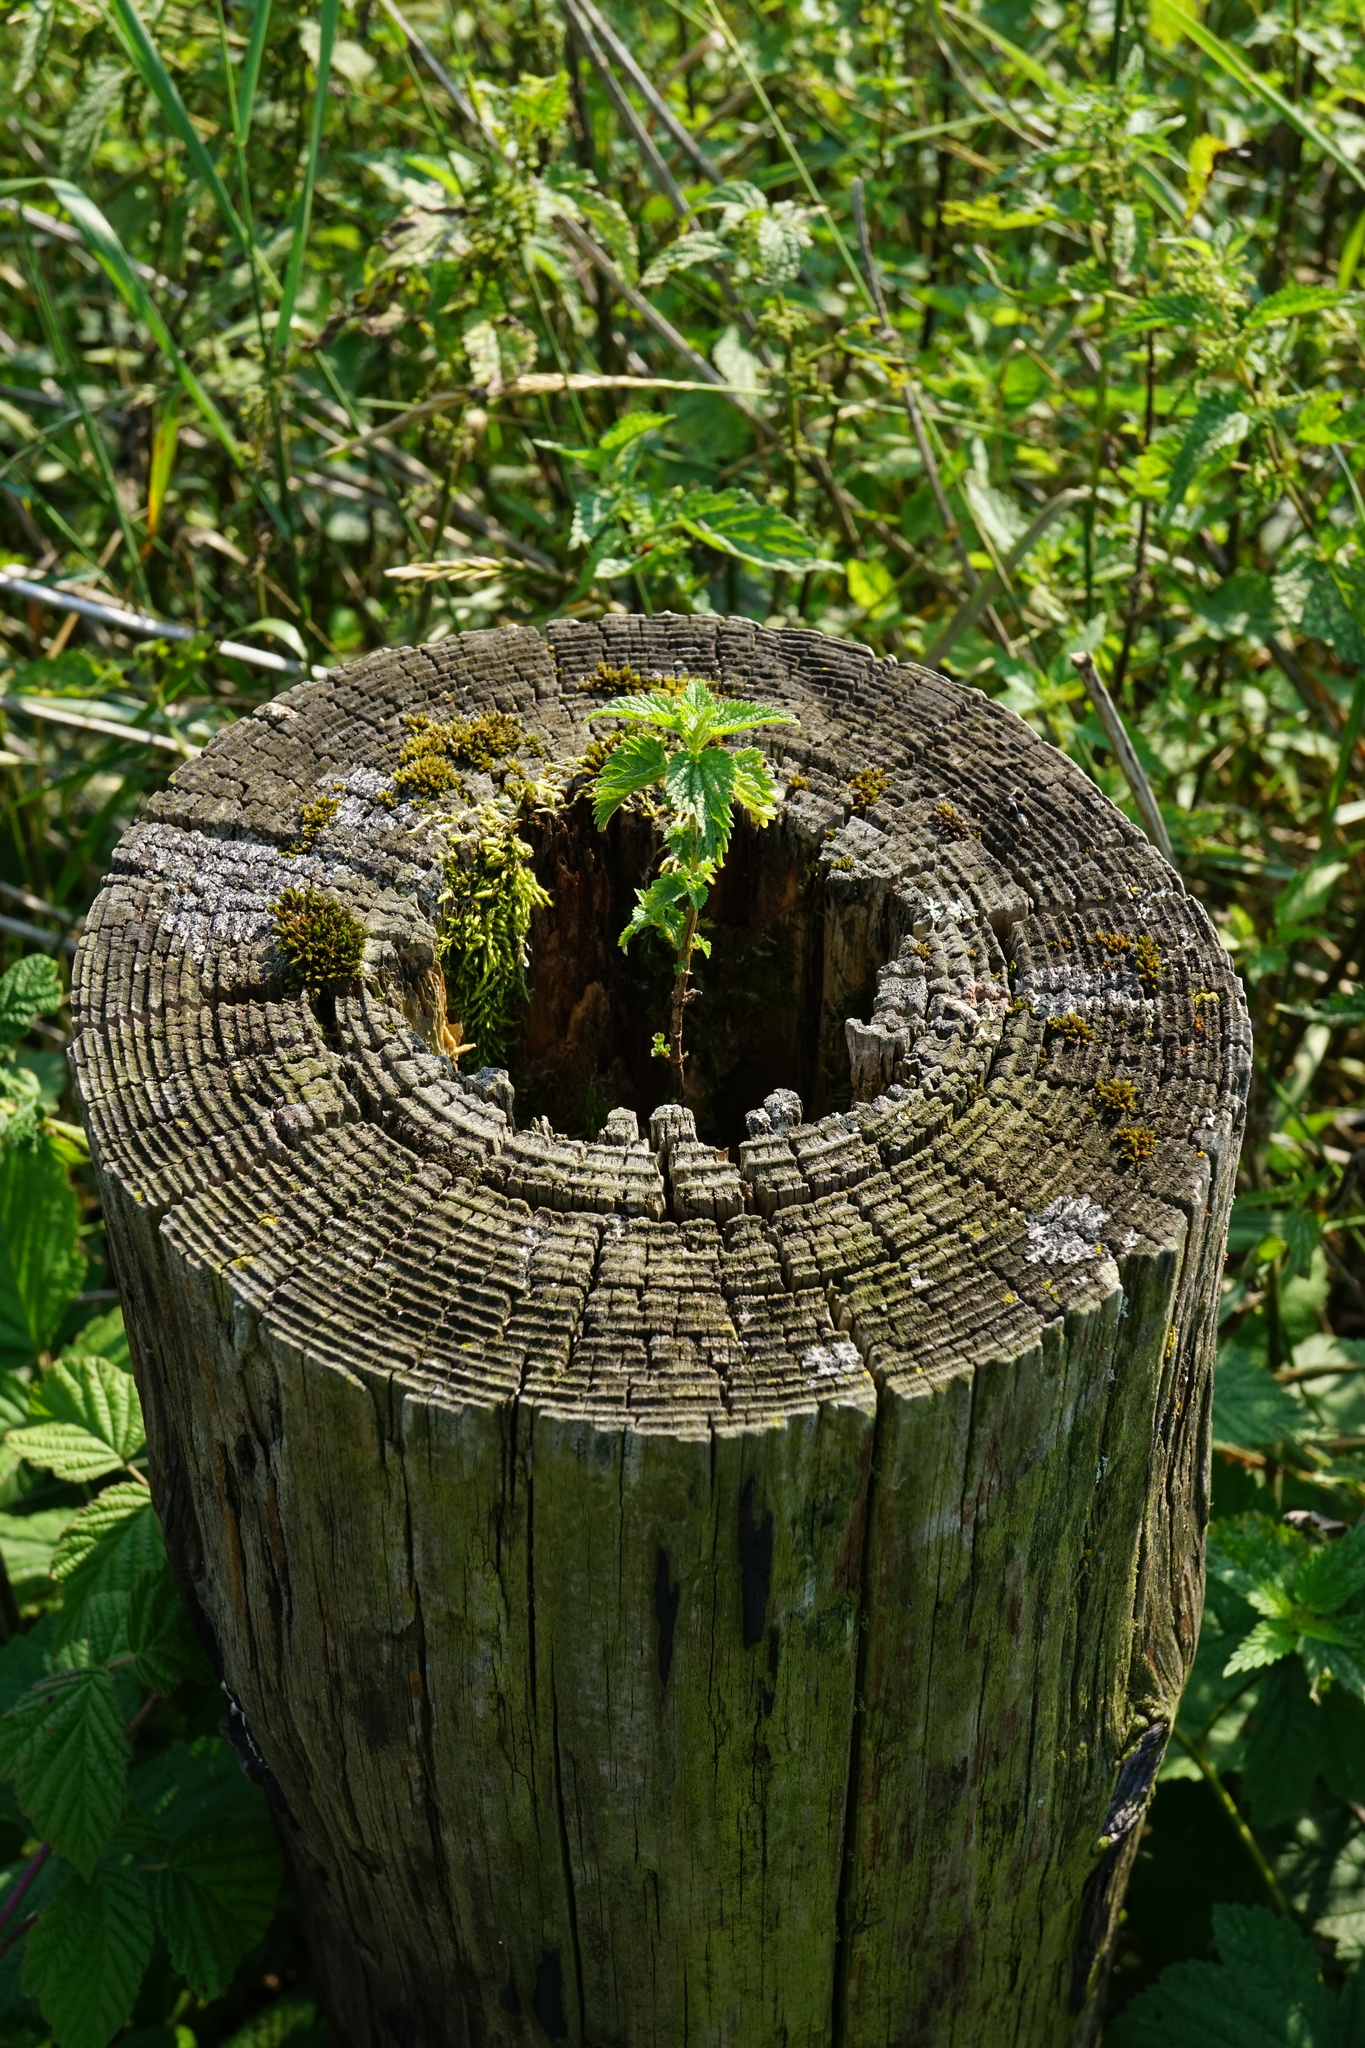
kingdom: Plantae
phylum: Tracheophyta
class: Magnoliopsida
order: Rosales
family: Urticaceae
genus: Urtica
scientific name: Urtica dioica
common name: Common nettle
